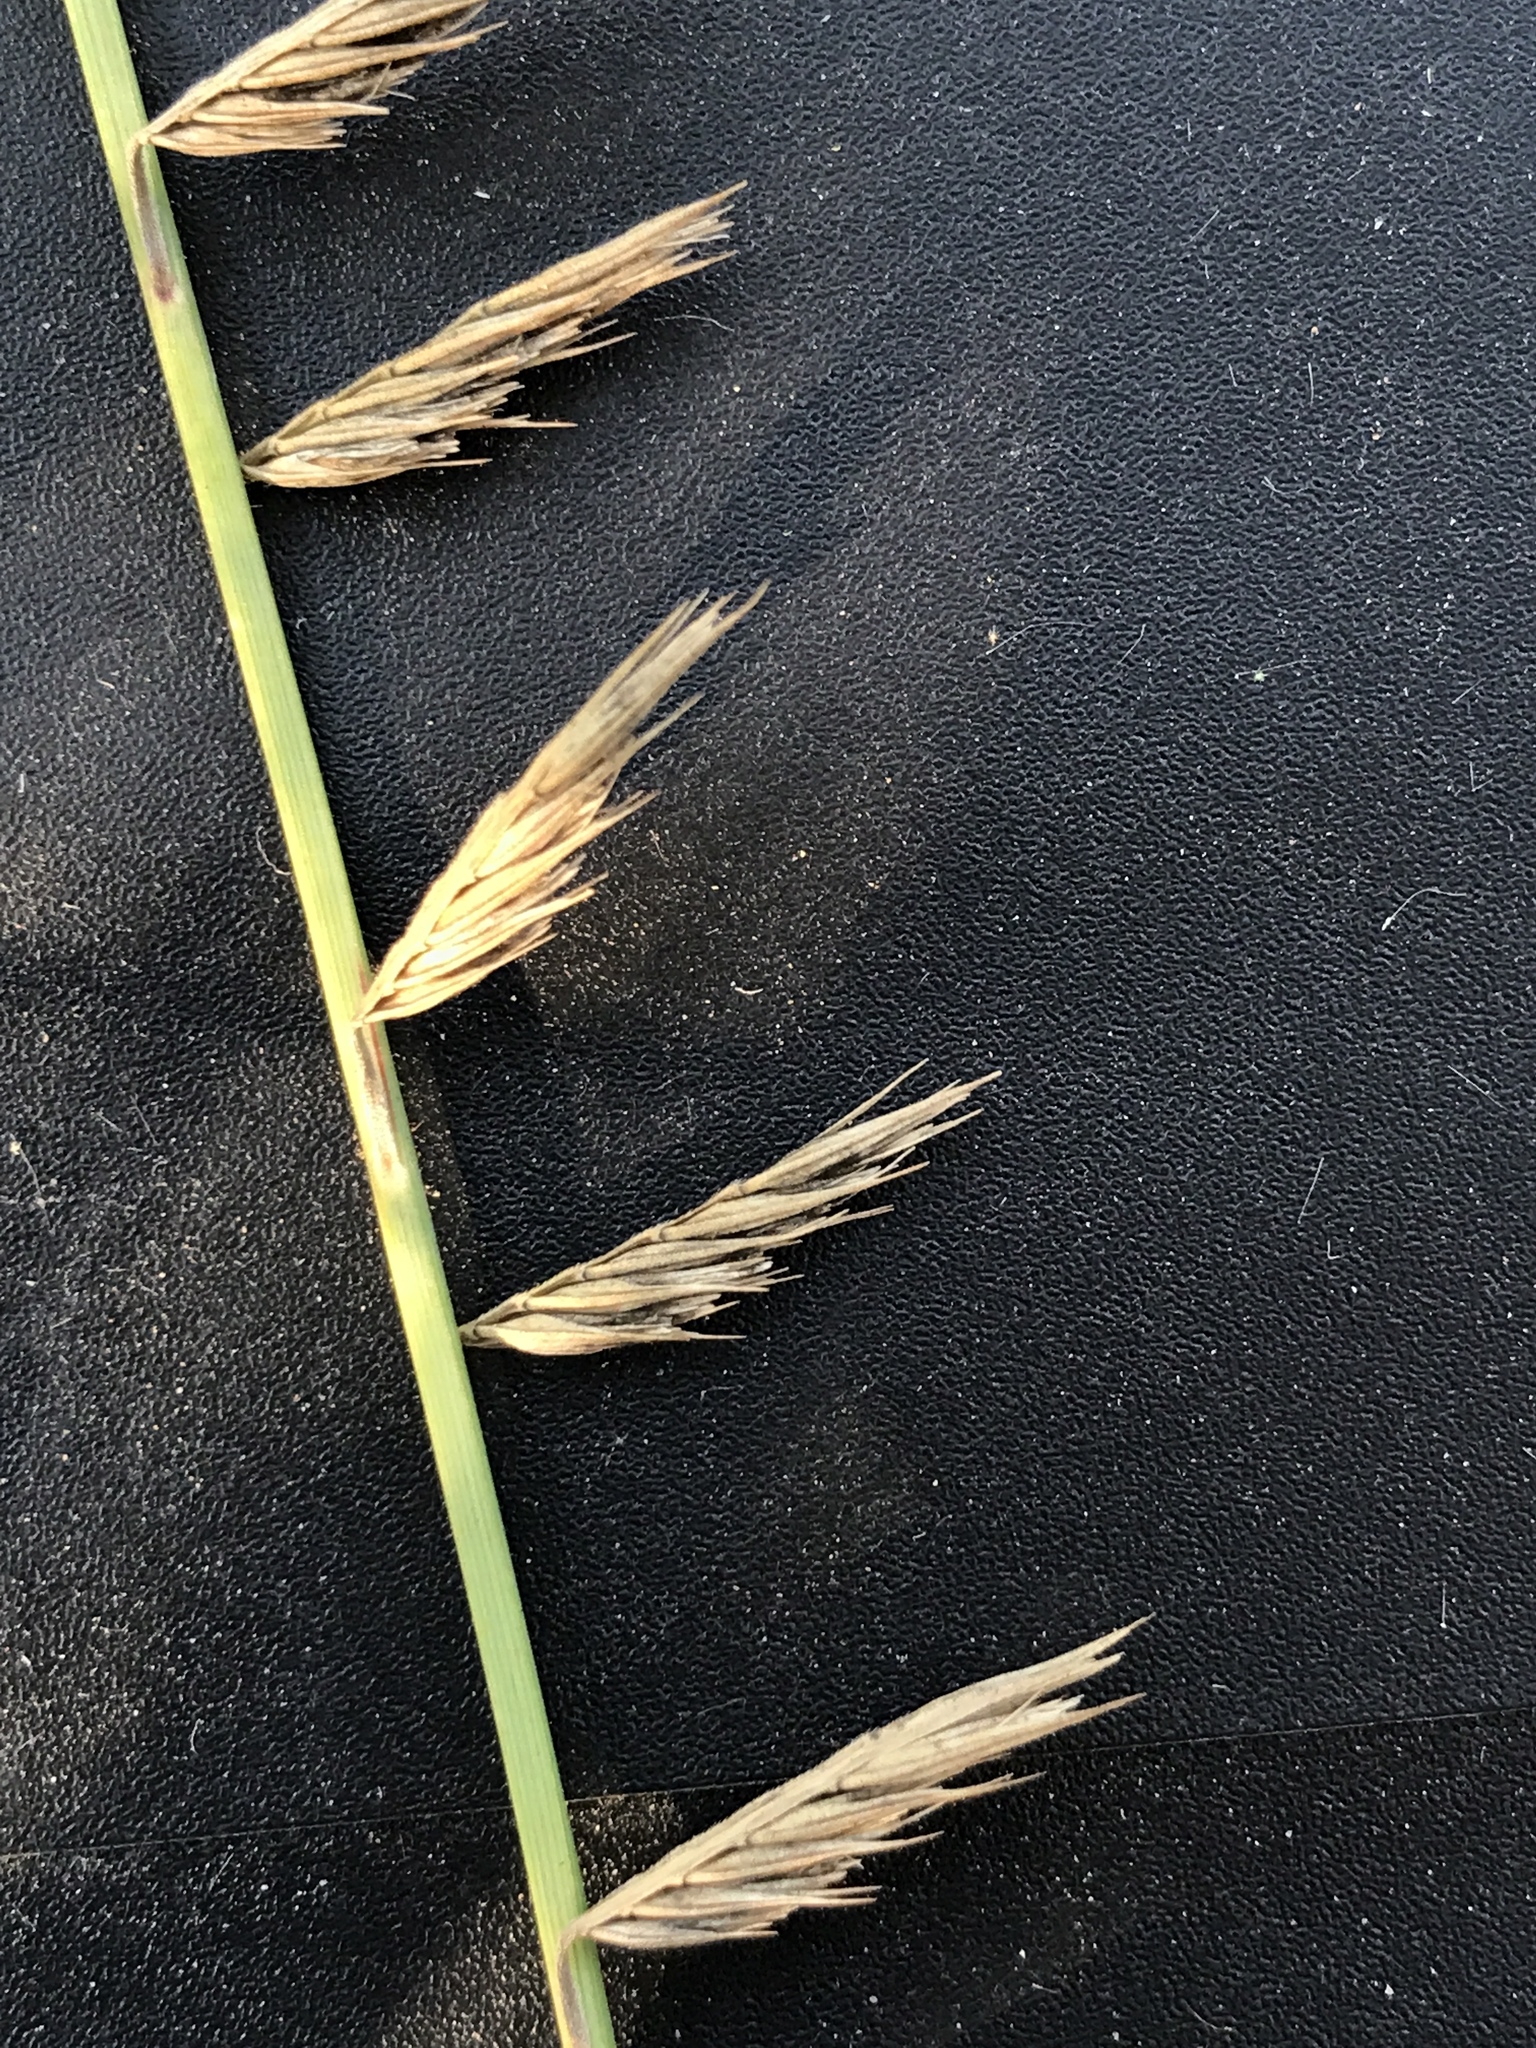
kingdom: Plantae
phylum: Tracheophyta
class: Liliopsida
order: Poales
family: Poaceae
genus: Bouteloua
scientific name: Bouteloua curtipendula
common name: Side-oats grama
